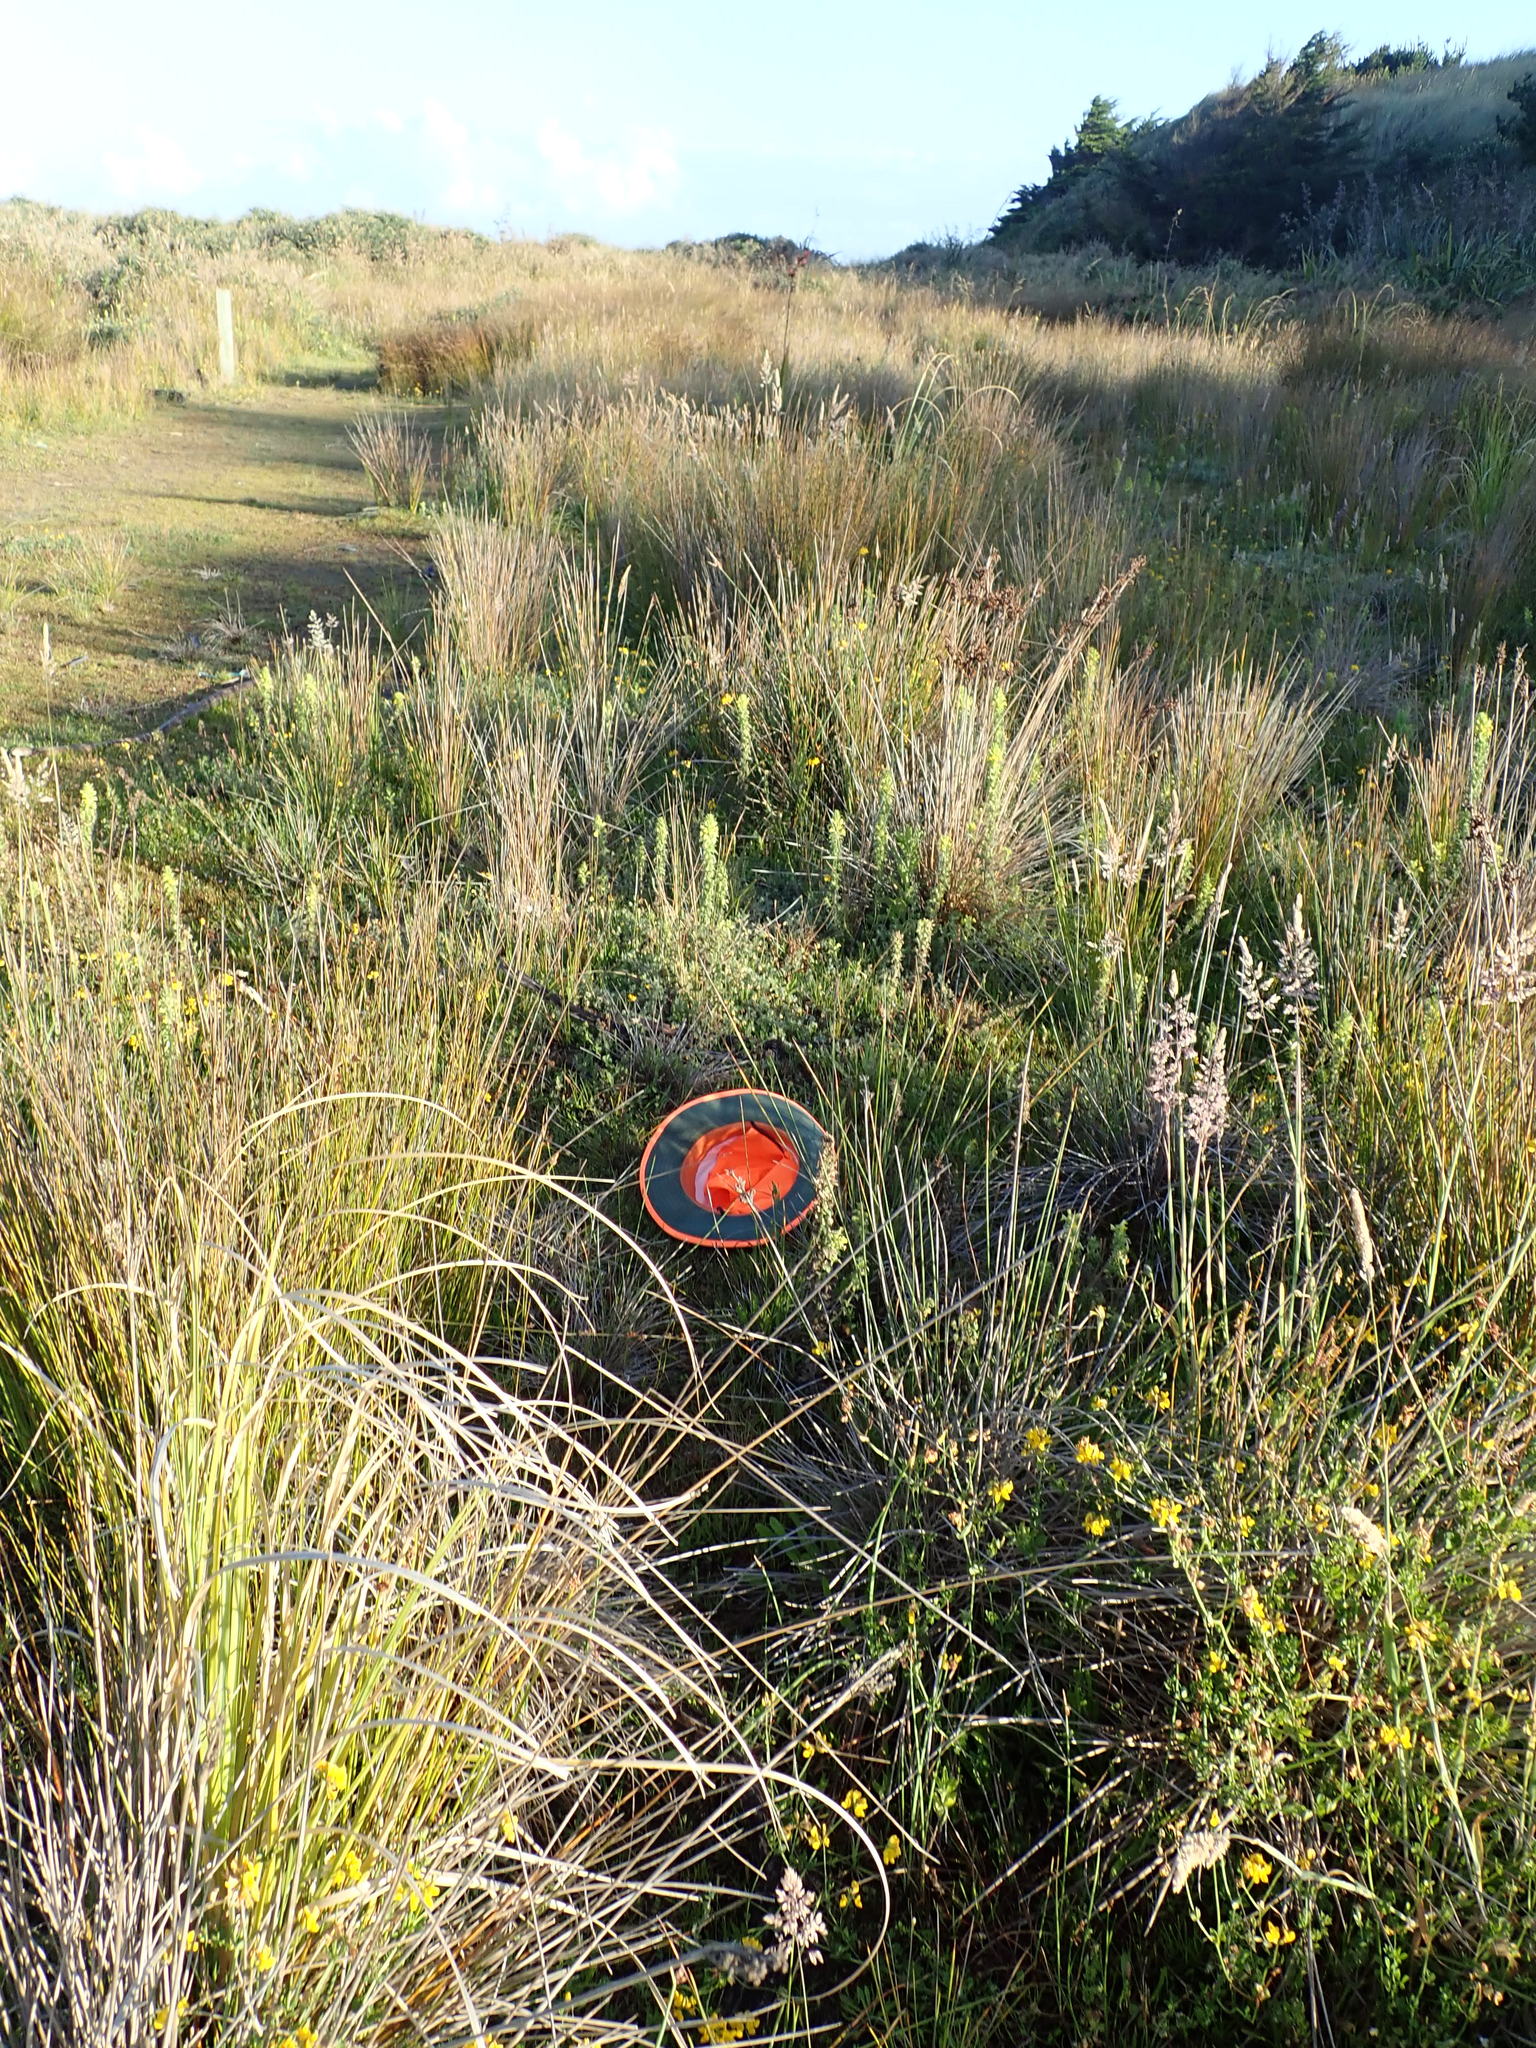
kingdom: Plantae
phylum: Tracheophyta
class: Magnoliopsida
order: Gentianales
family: Gentianaceae
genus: Centaurium
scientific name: Centaurium erythraea
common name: Common centaury
